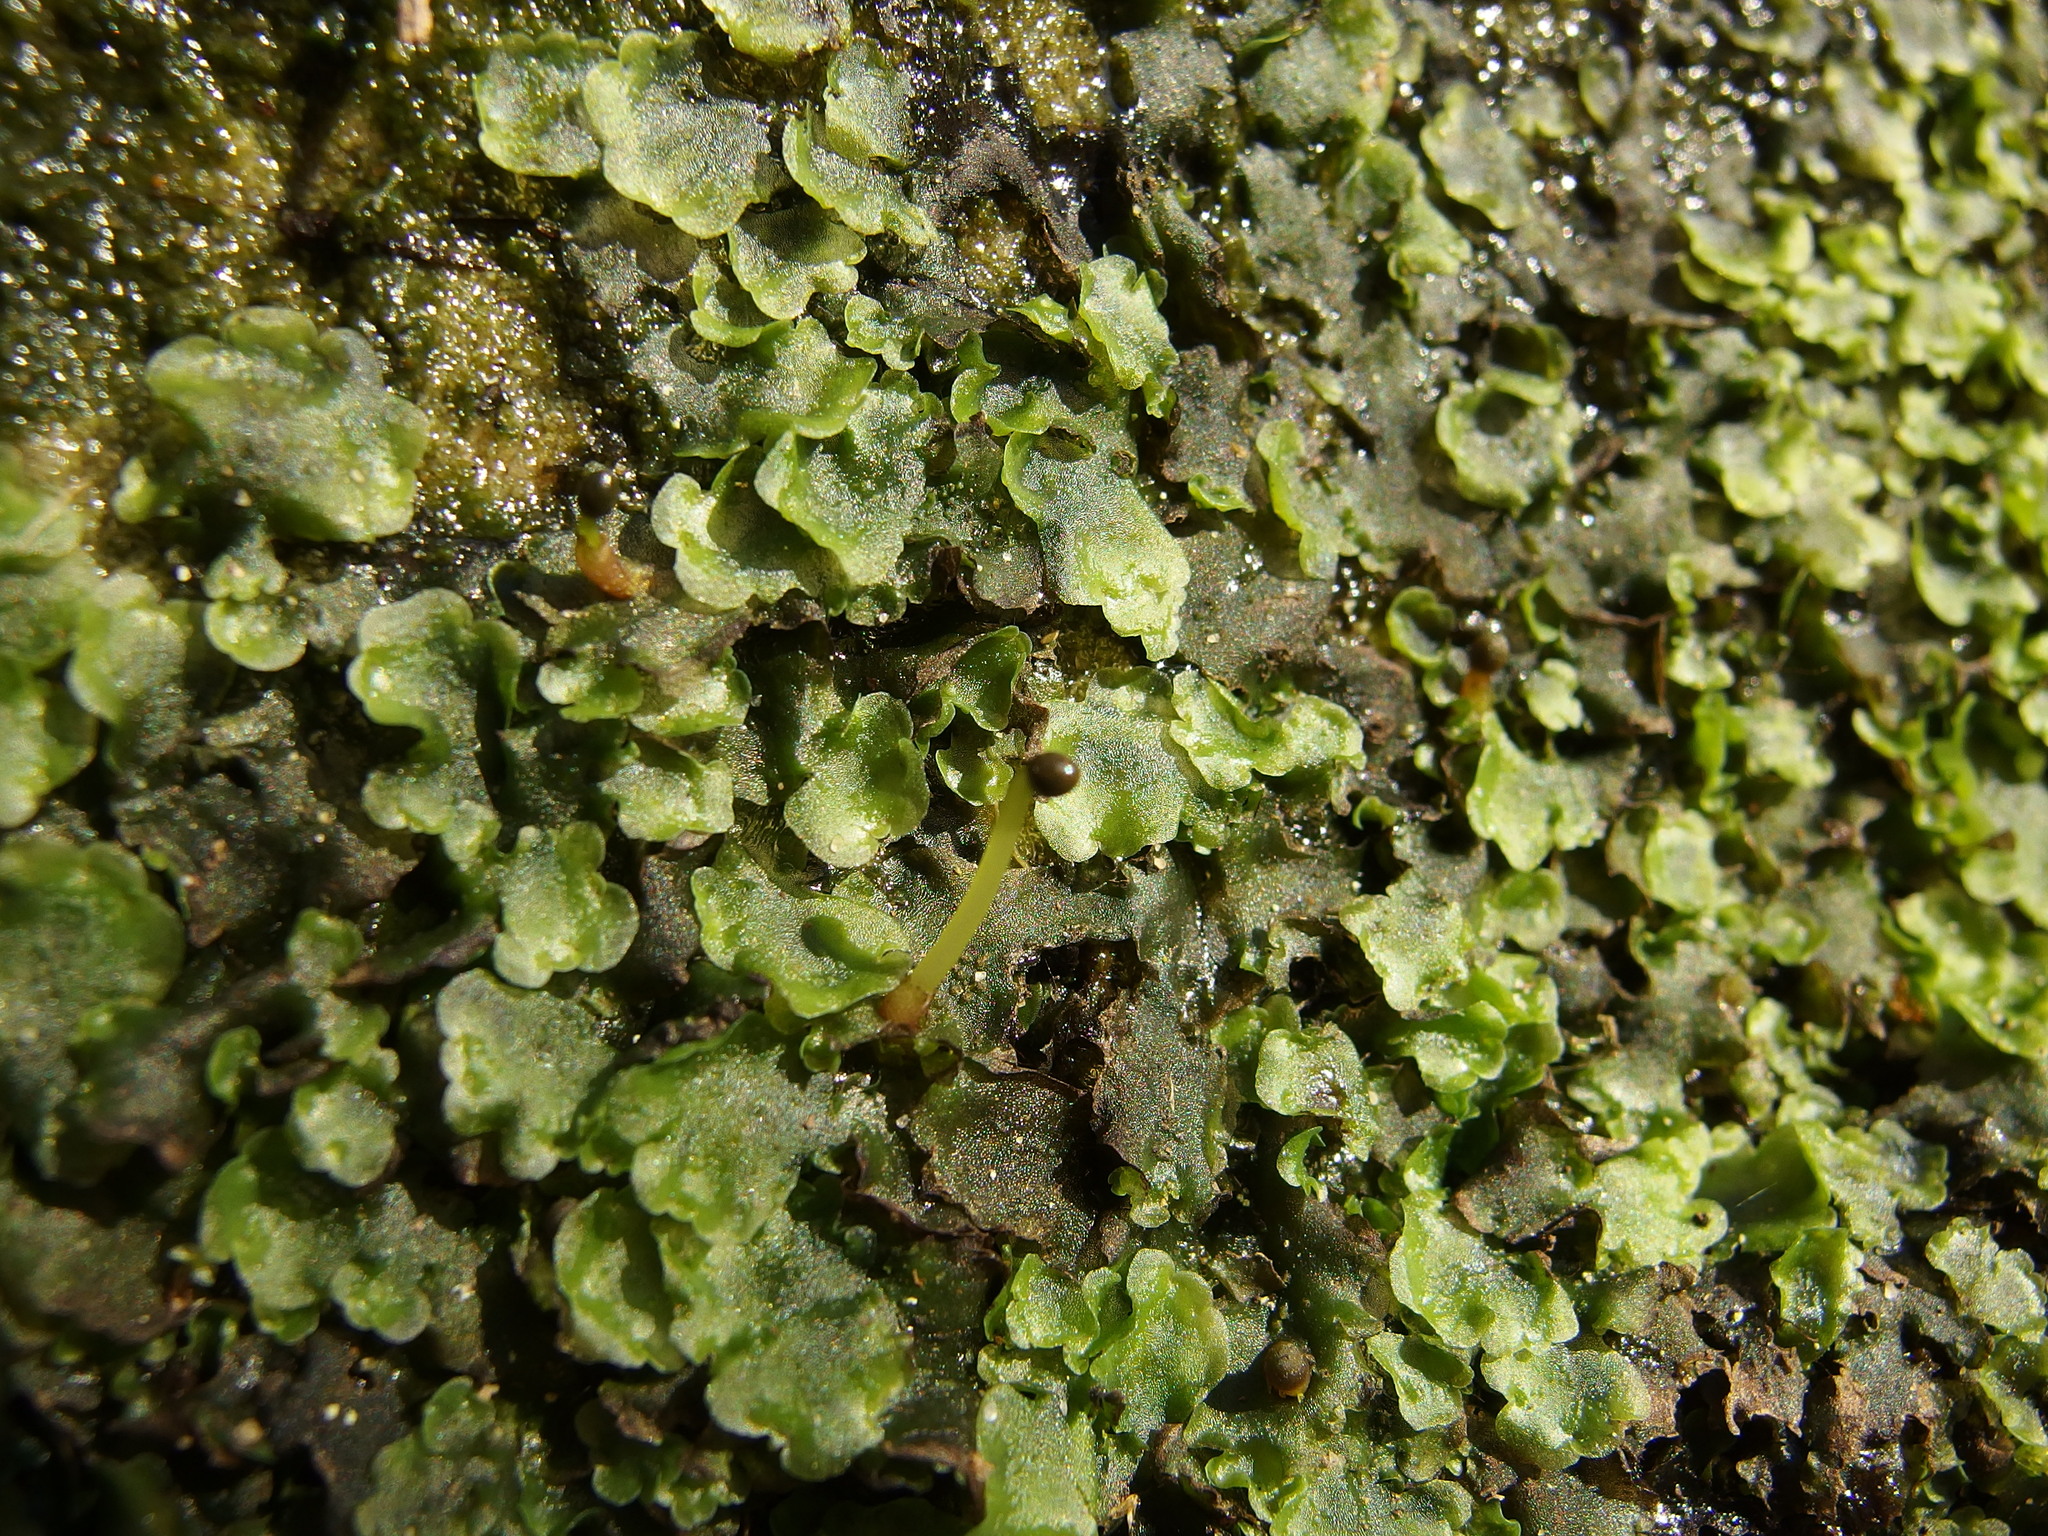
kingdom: Plantae
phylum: Marchantiophyta
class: Jungermanniopsida
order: Pelliales
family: Pelliaceae
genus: Pellia
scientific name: Pellia epiphylla
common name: Common pellia
